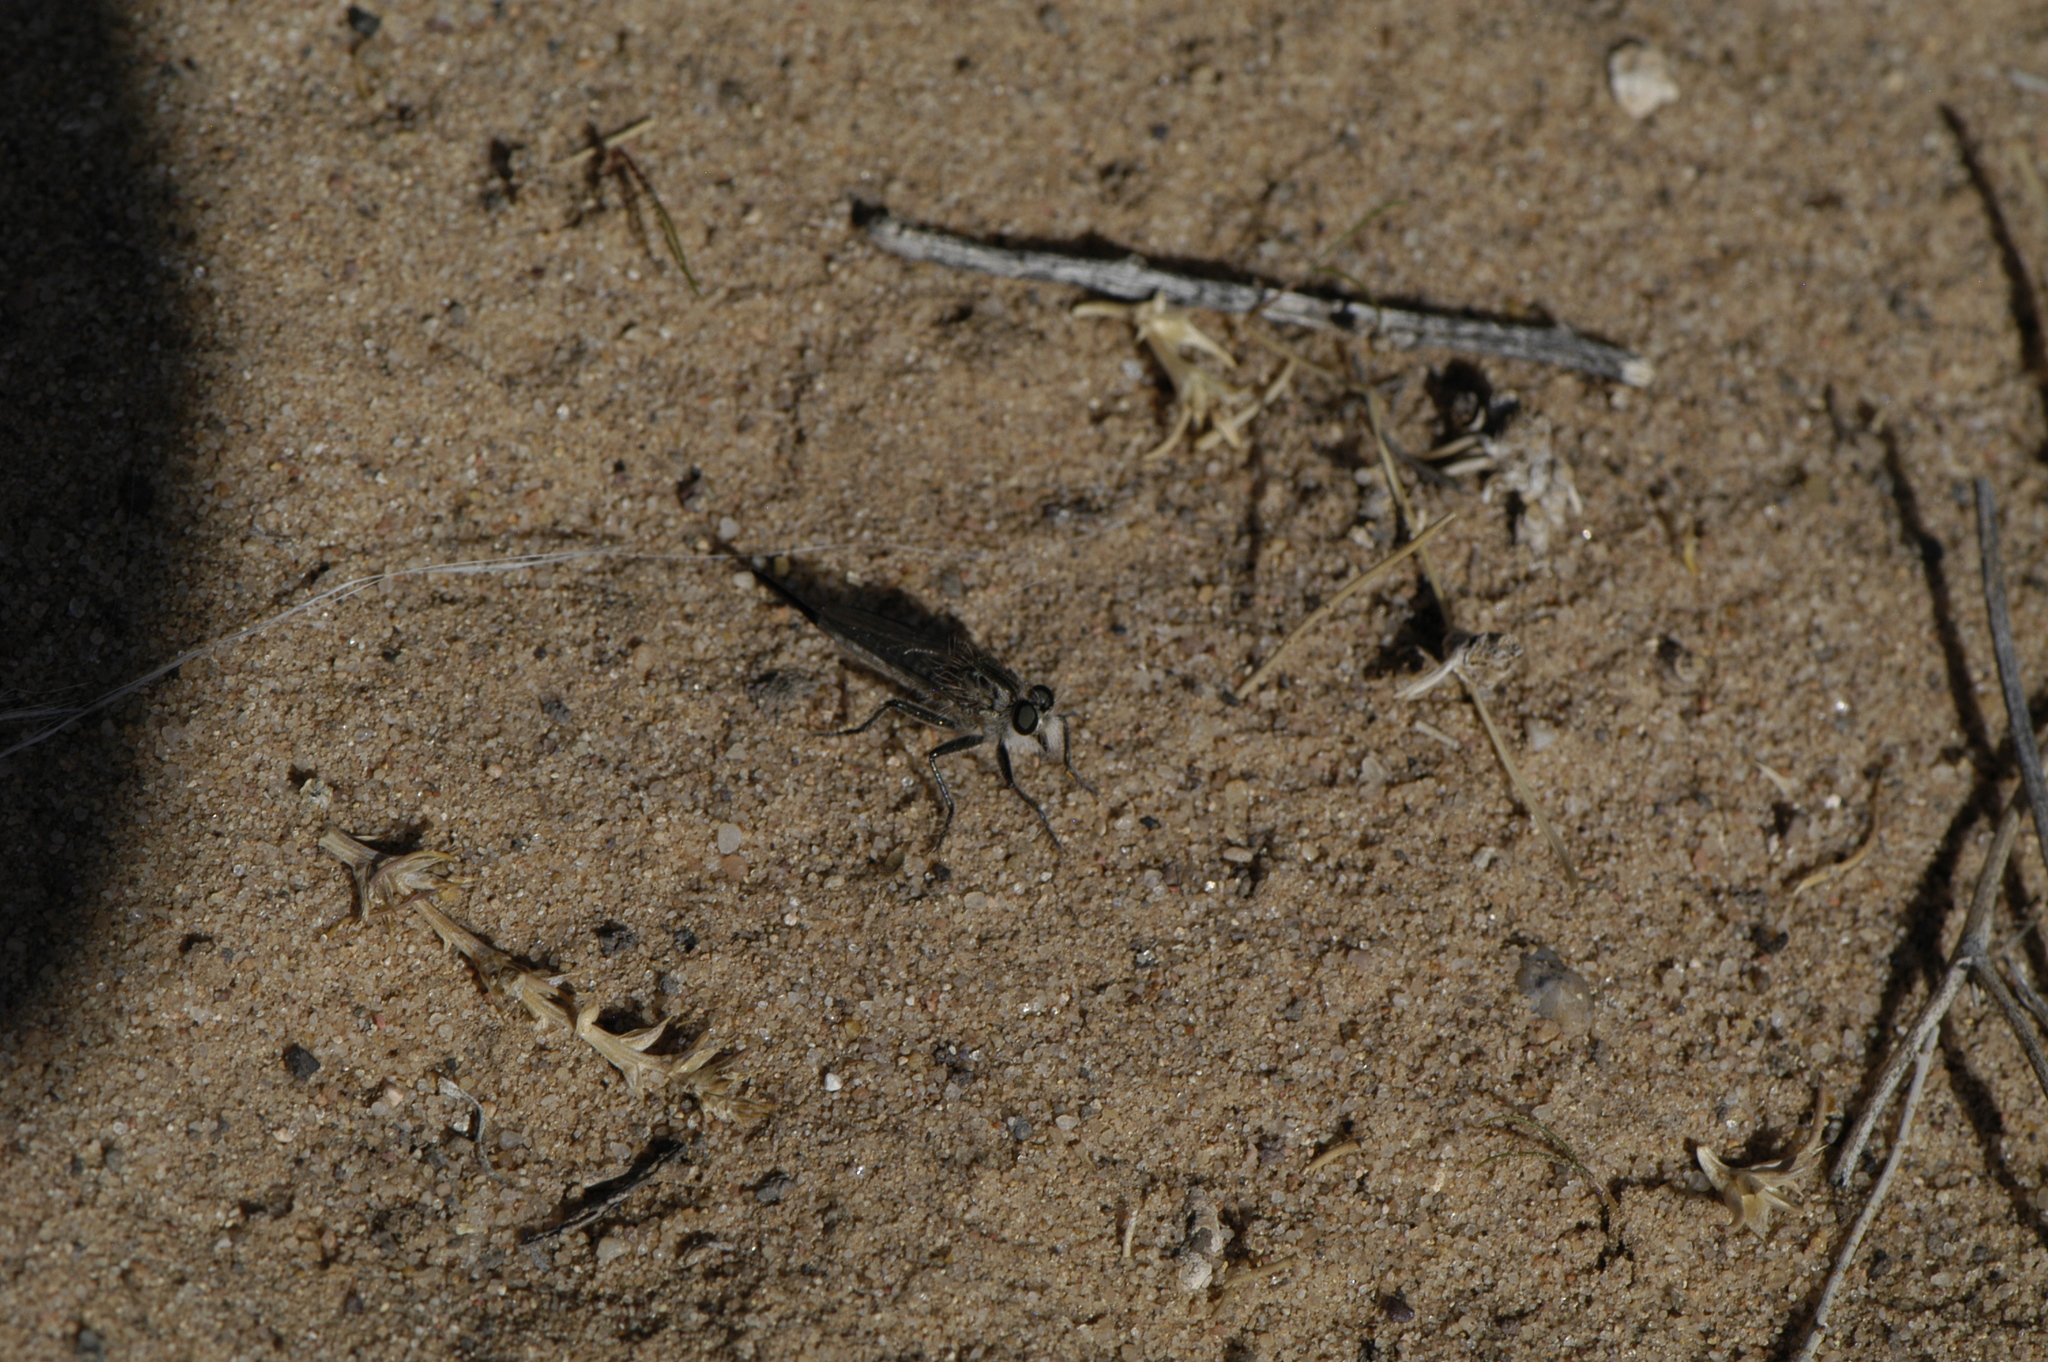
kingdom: Animalia
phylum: Arthropoda
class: Insecta
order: Diptera
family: Asilidae
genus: Efferia
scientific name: Efferia
